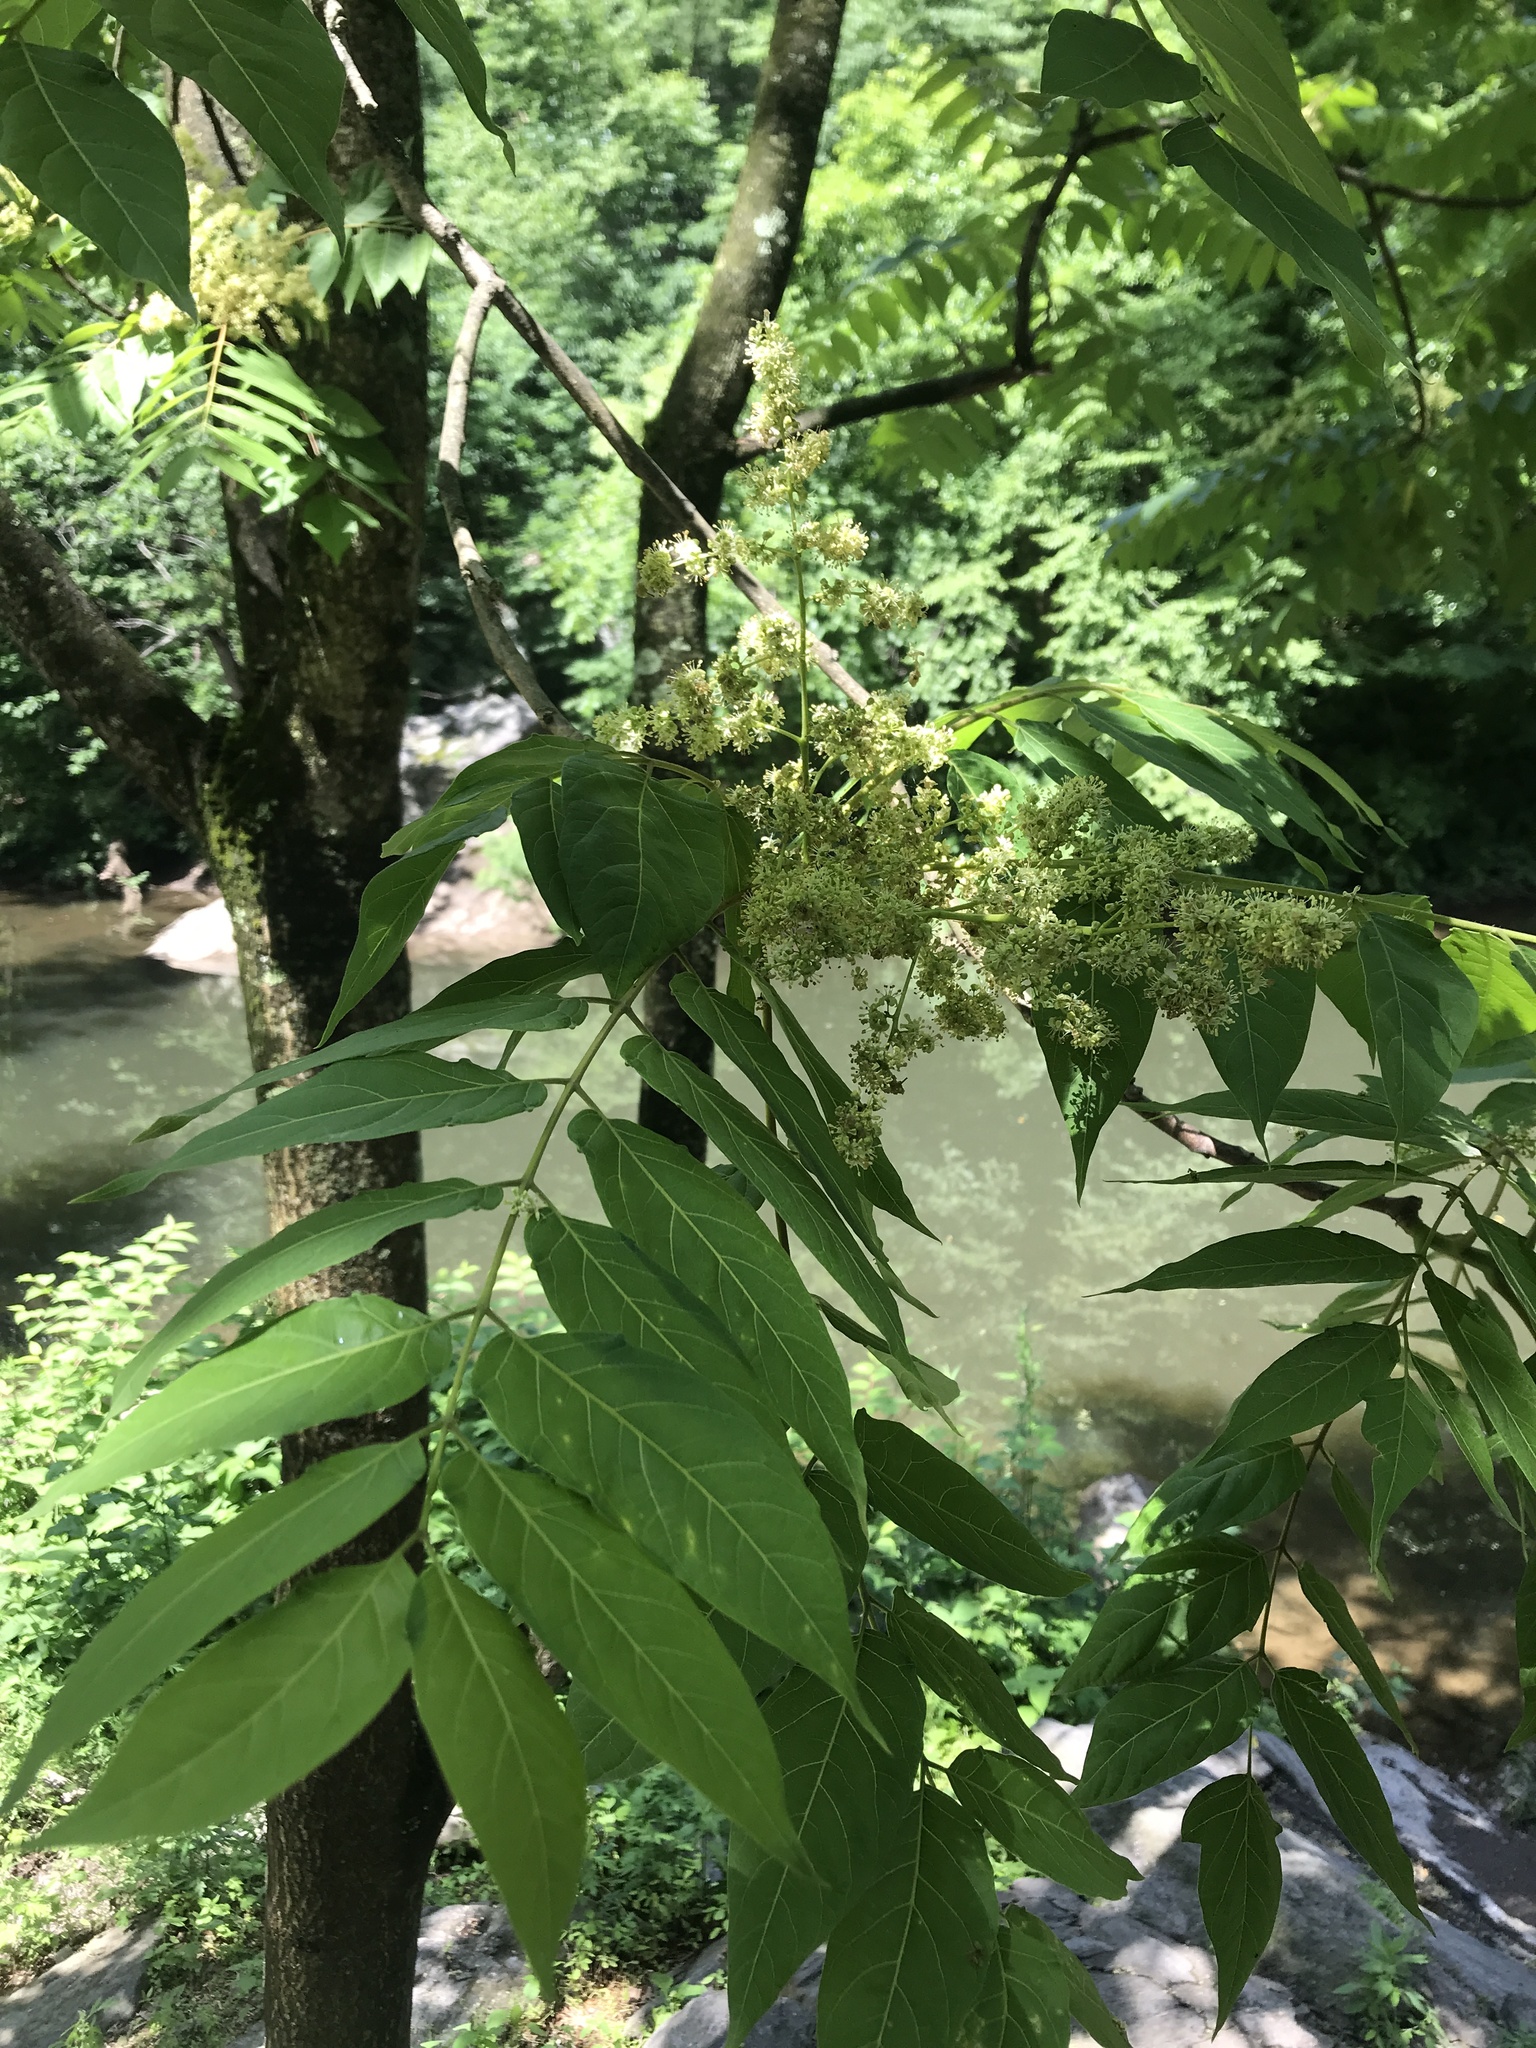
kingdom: Plantae
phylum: Tracheophyta
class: Magnoliopsida
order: Sapindales
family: Simaroubaceae
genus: Ailanthus
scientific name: Ailanthus altissima
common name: Tree-of-heaven
